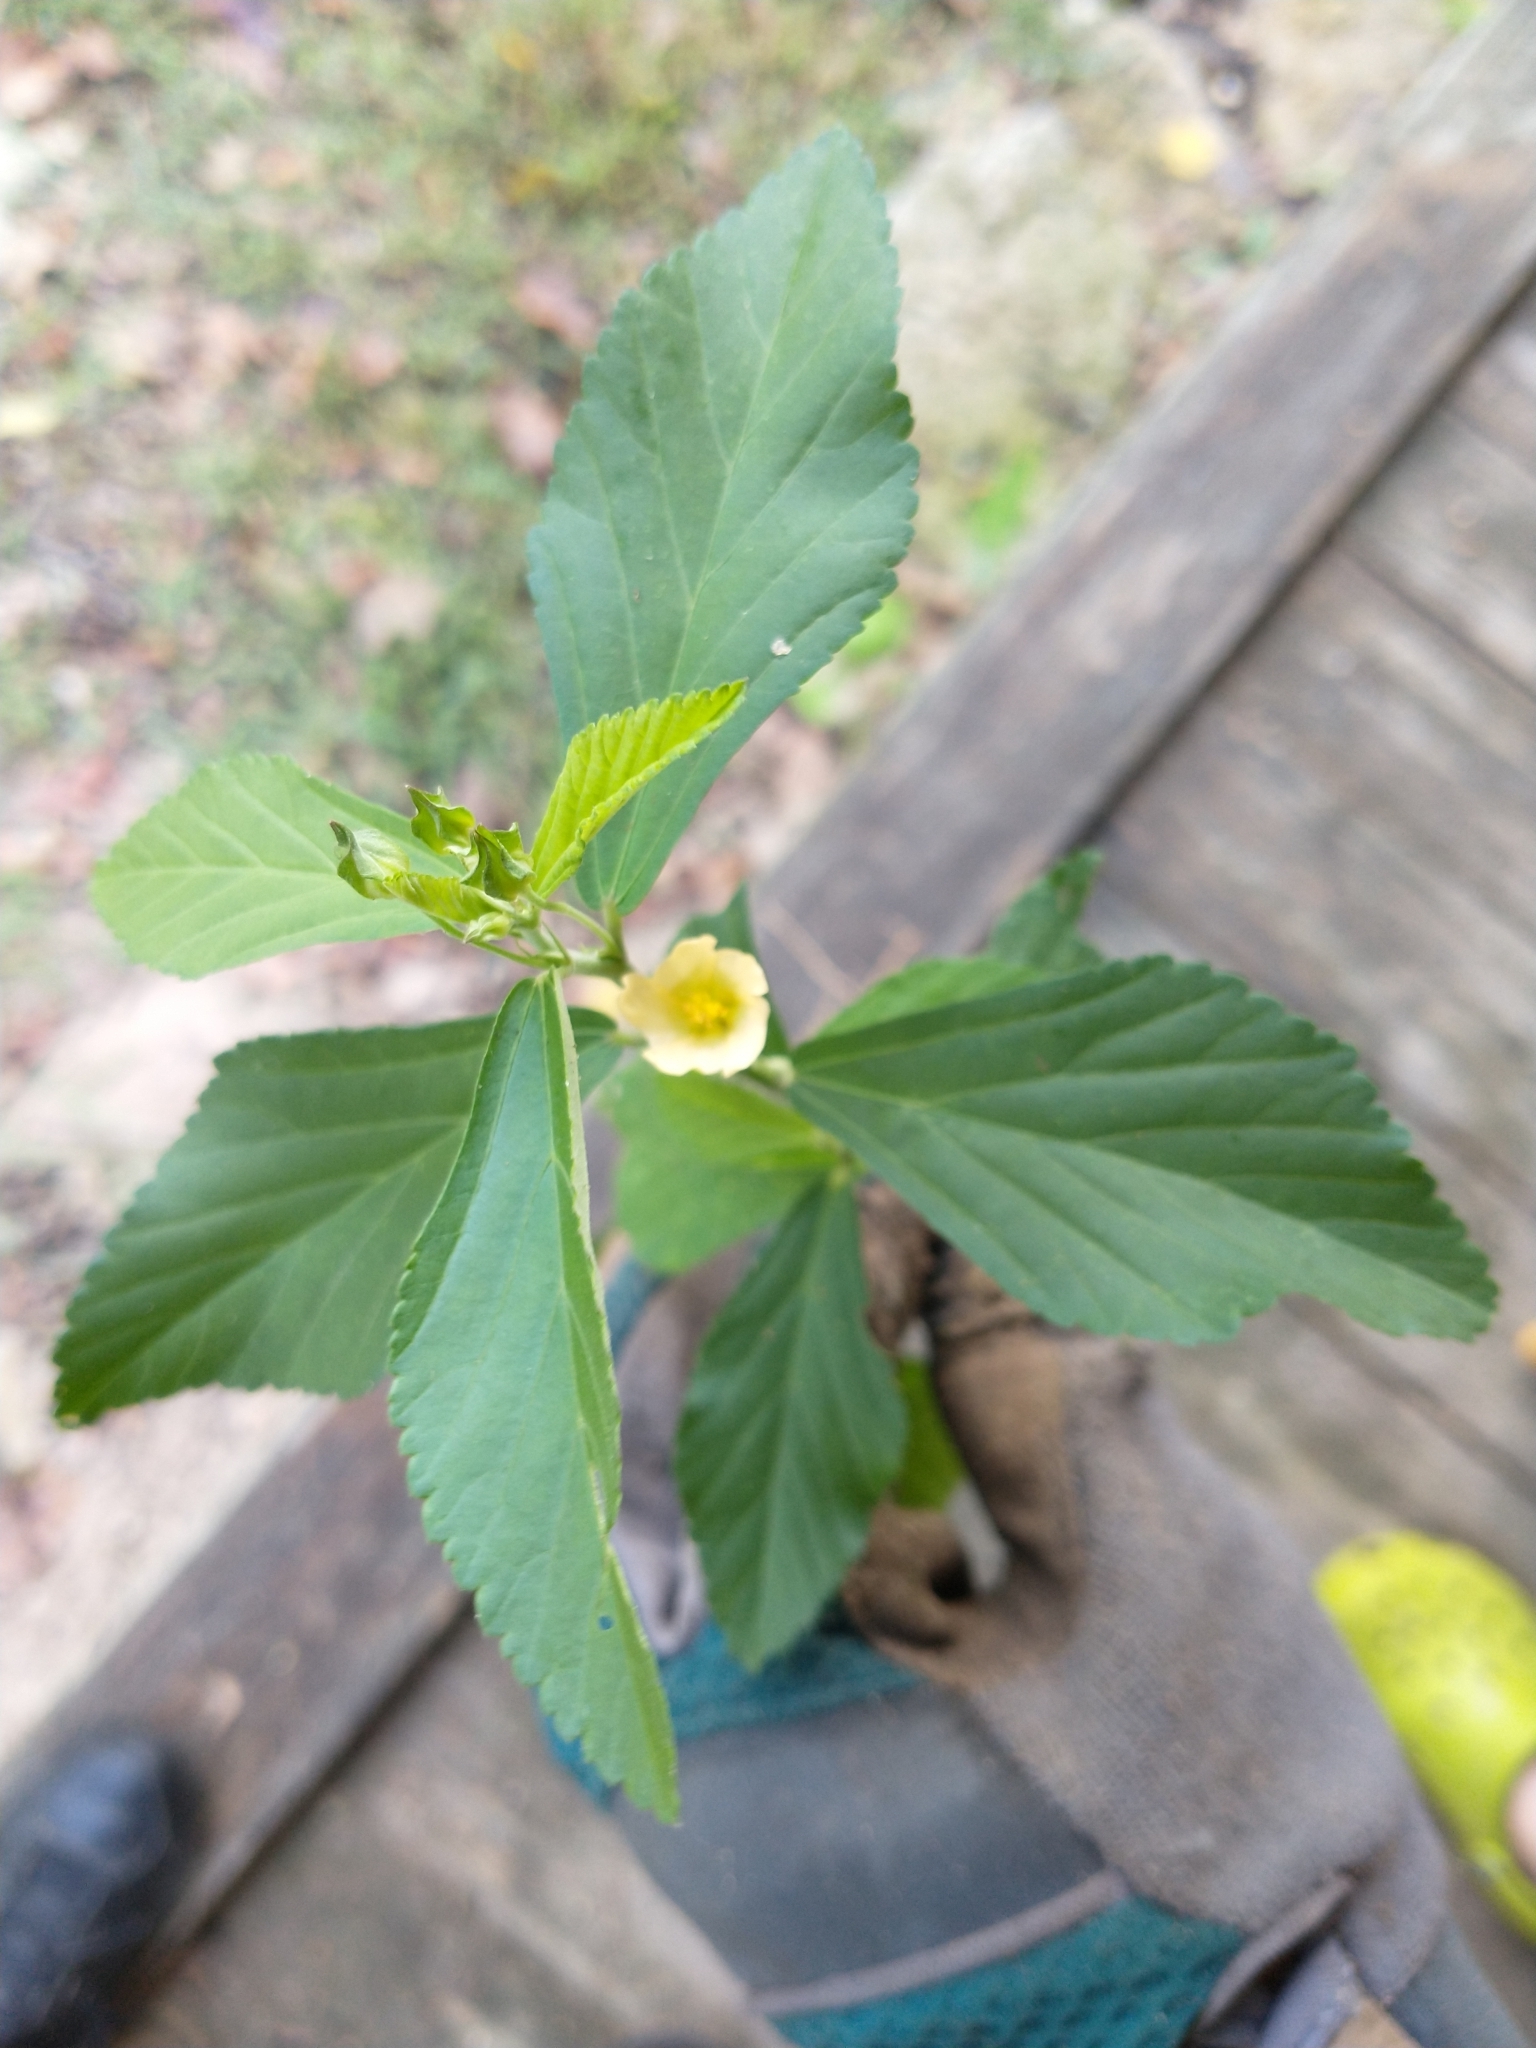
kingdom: Plantae
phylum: Tracheophyta
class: Magnoliopsida
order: Malvales
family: Malvaceae
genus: Sida
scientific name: Sida rhombifolia
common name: Queensland-hemp
